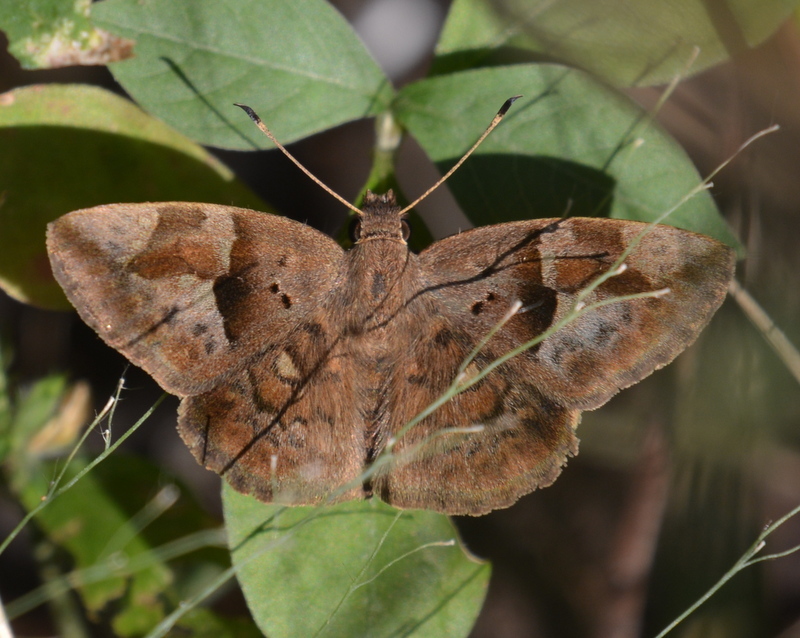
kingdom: Animalia
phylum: Arthropoda
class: Insecta
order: Lepidoptera
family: Hesperiidae
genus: Sarangesa
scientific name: Sarangesa motozi
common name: Forest elfin
